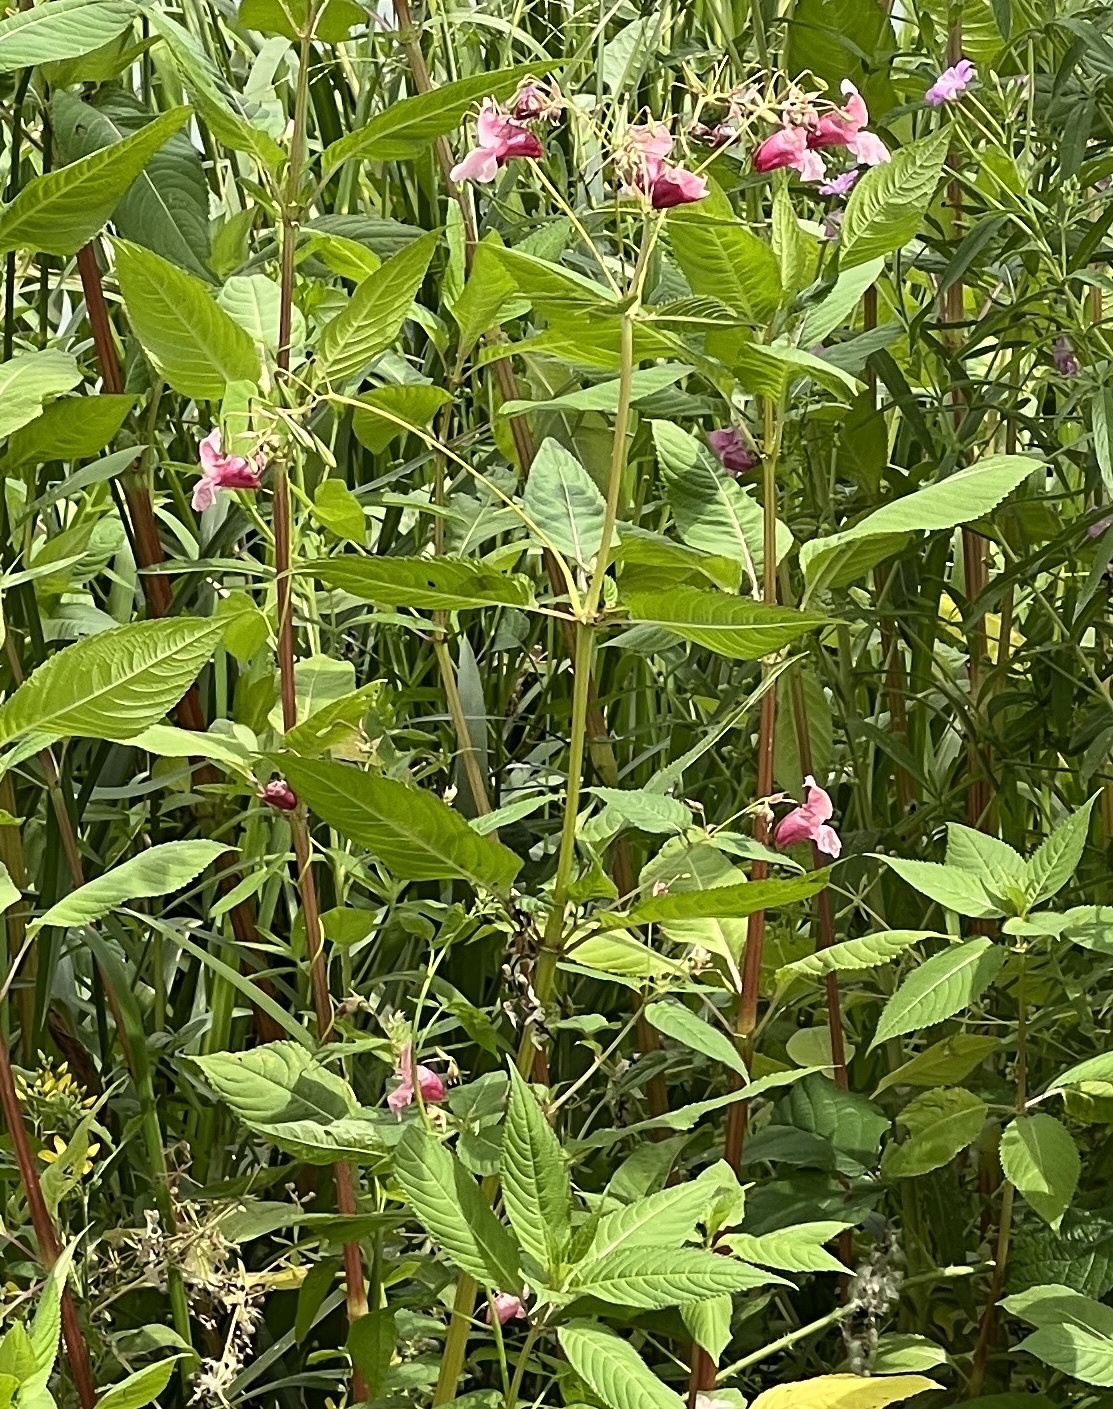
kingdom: Plantae
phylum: Tracheophyta
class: Magnoliopsida
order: Ericales
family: Balsaminaceae
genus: Impatiens
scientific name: Impatiens glandulifera
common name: Himalayan balsam
